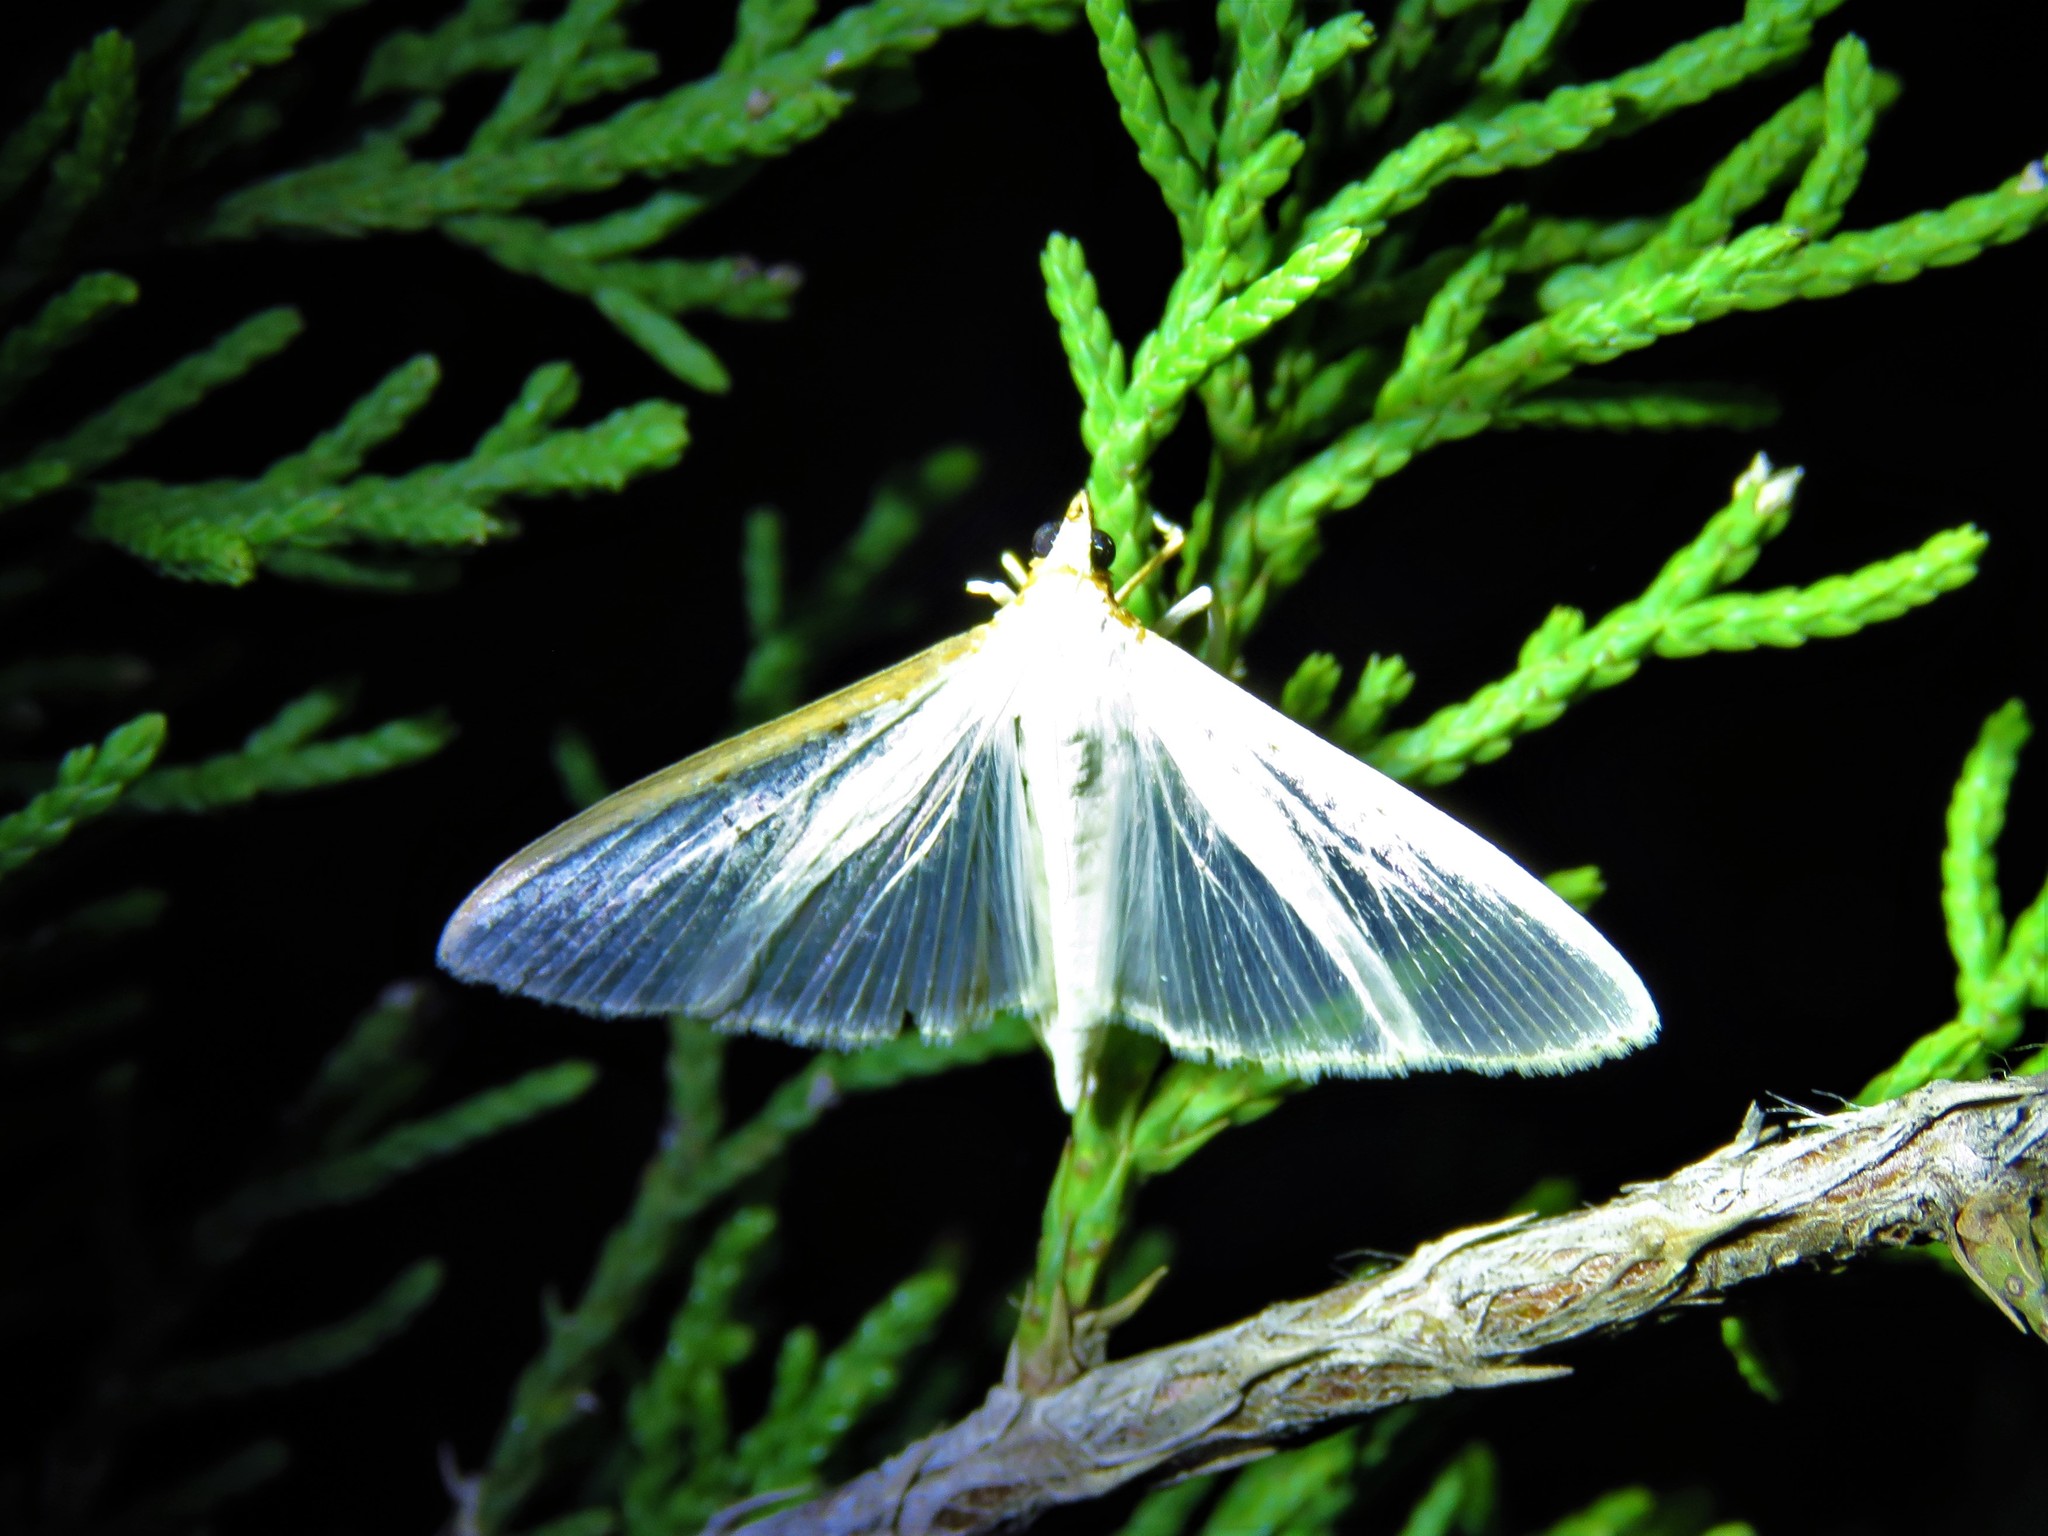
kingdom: Animalia
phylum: Arthropoda
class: Insecta
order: Lepidoptera
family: Crambidae
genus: Palpita
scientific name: Palpita quadristigmalis
